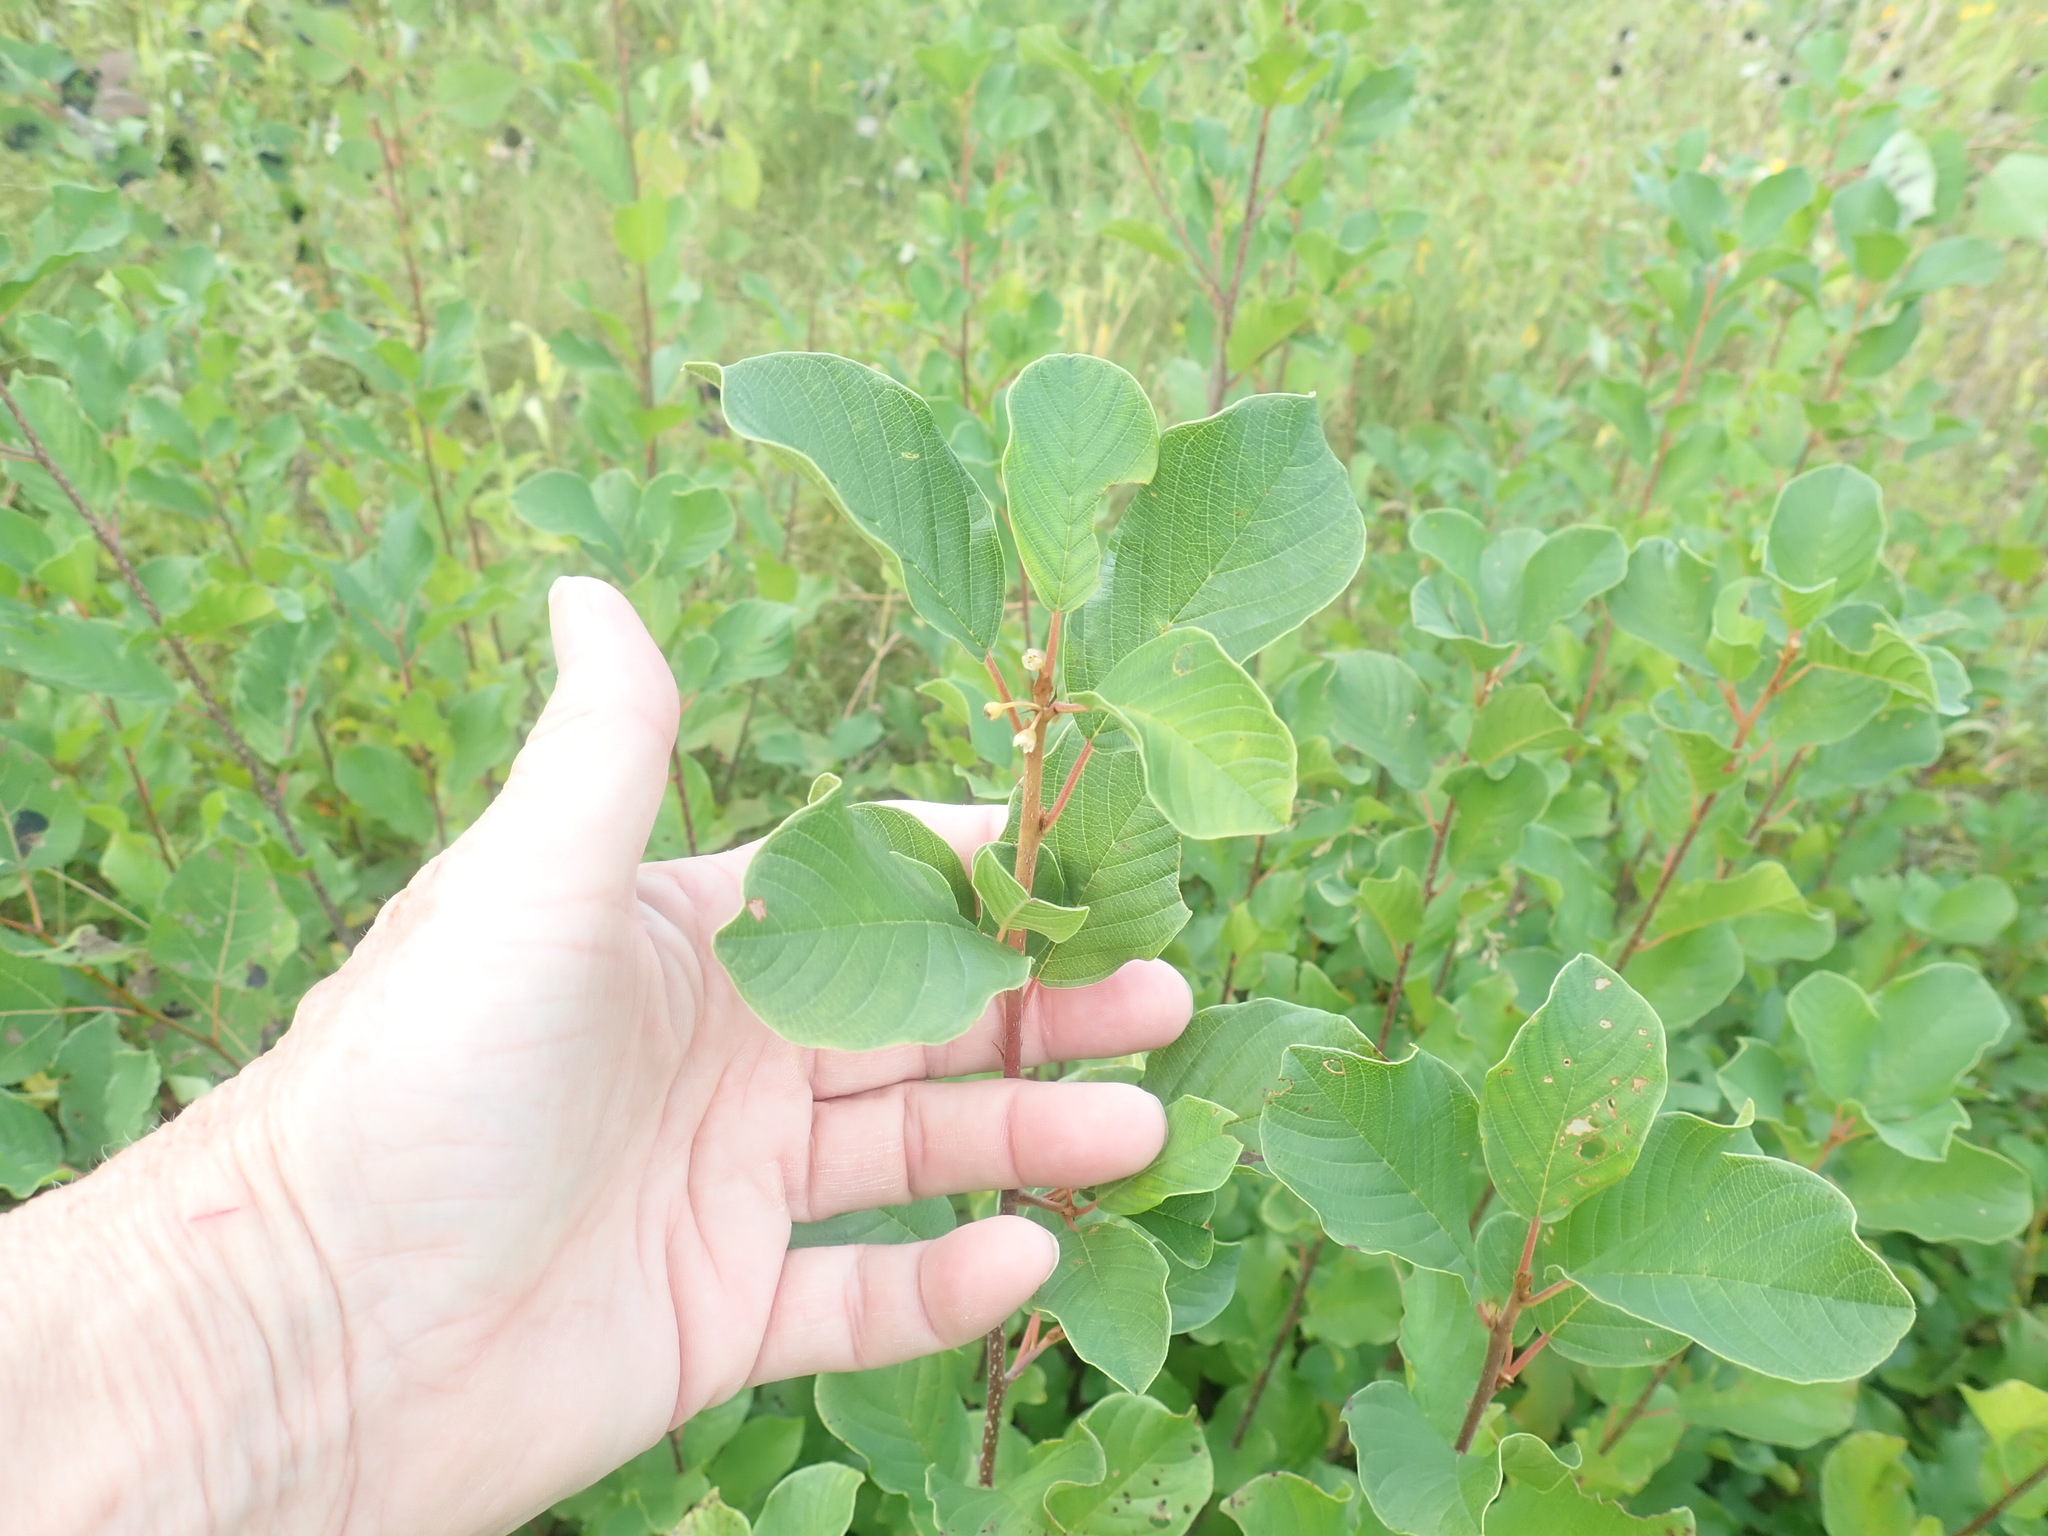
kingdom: Plantae
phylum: Tracheophyta
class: Magnoliopsida
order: Rosales
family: Rhamnaceae
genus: Frangula
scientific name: Frangula alnus
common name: Alder buckthorn
